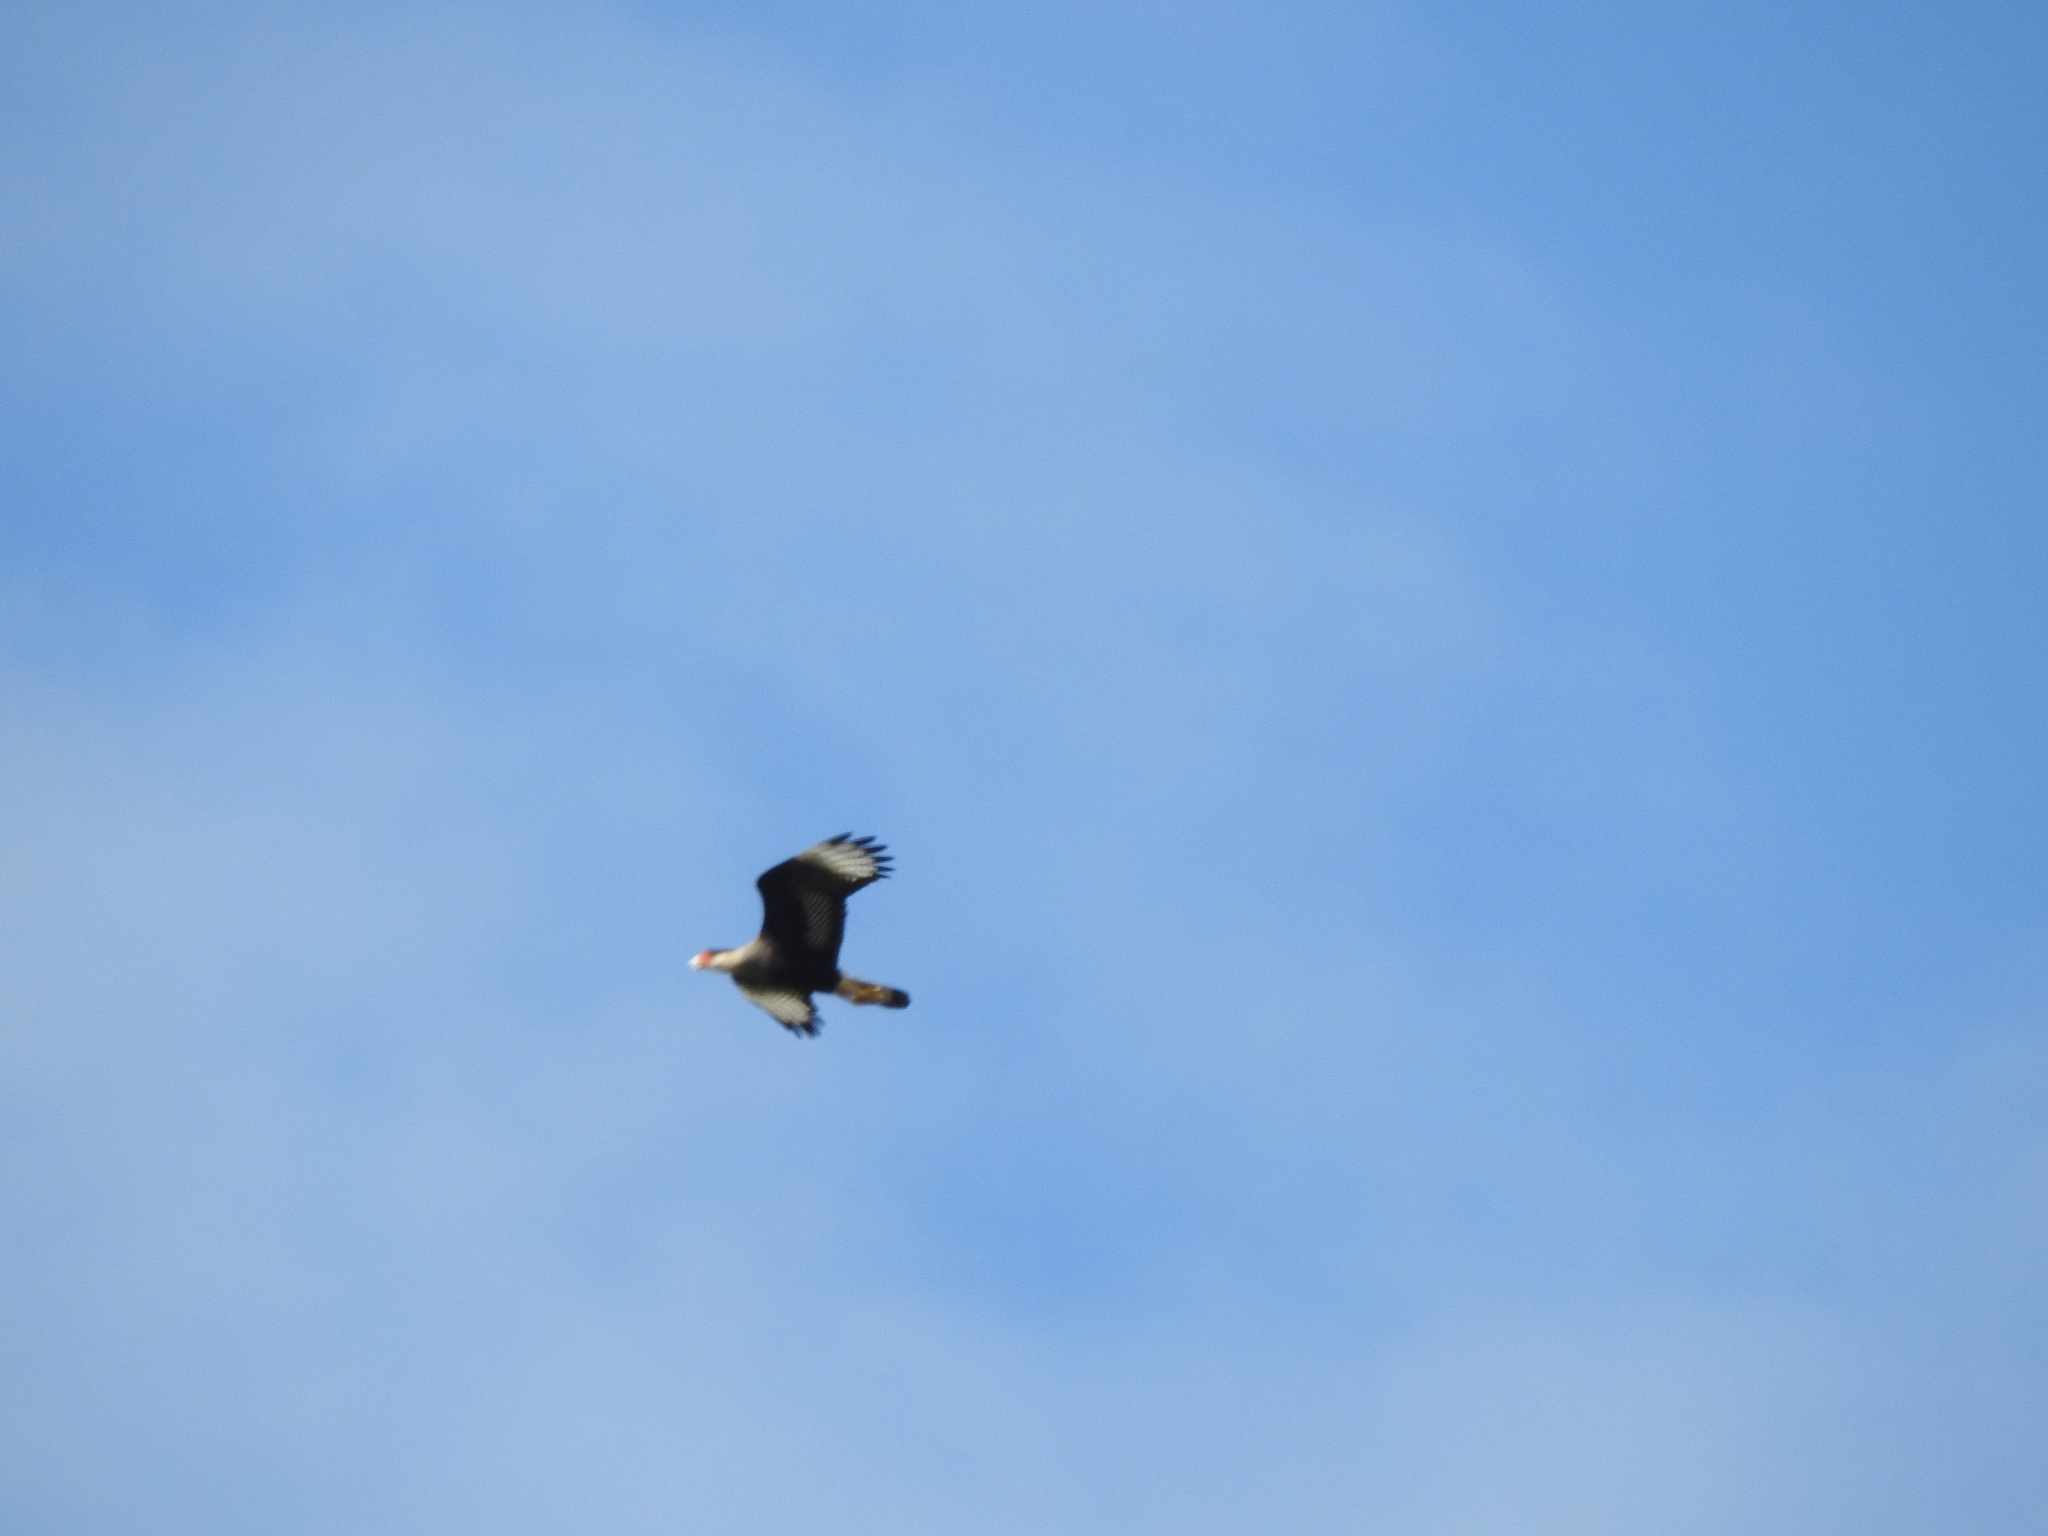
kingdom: Animalia
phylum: Chordata
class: Aves
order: Falconiformes
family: Falconidae
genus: Caracara
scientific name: Caracara plancus
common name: Southern caracara
